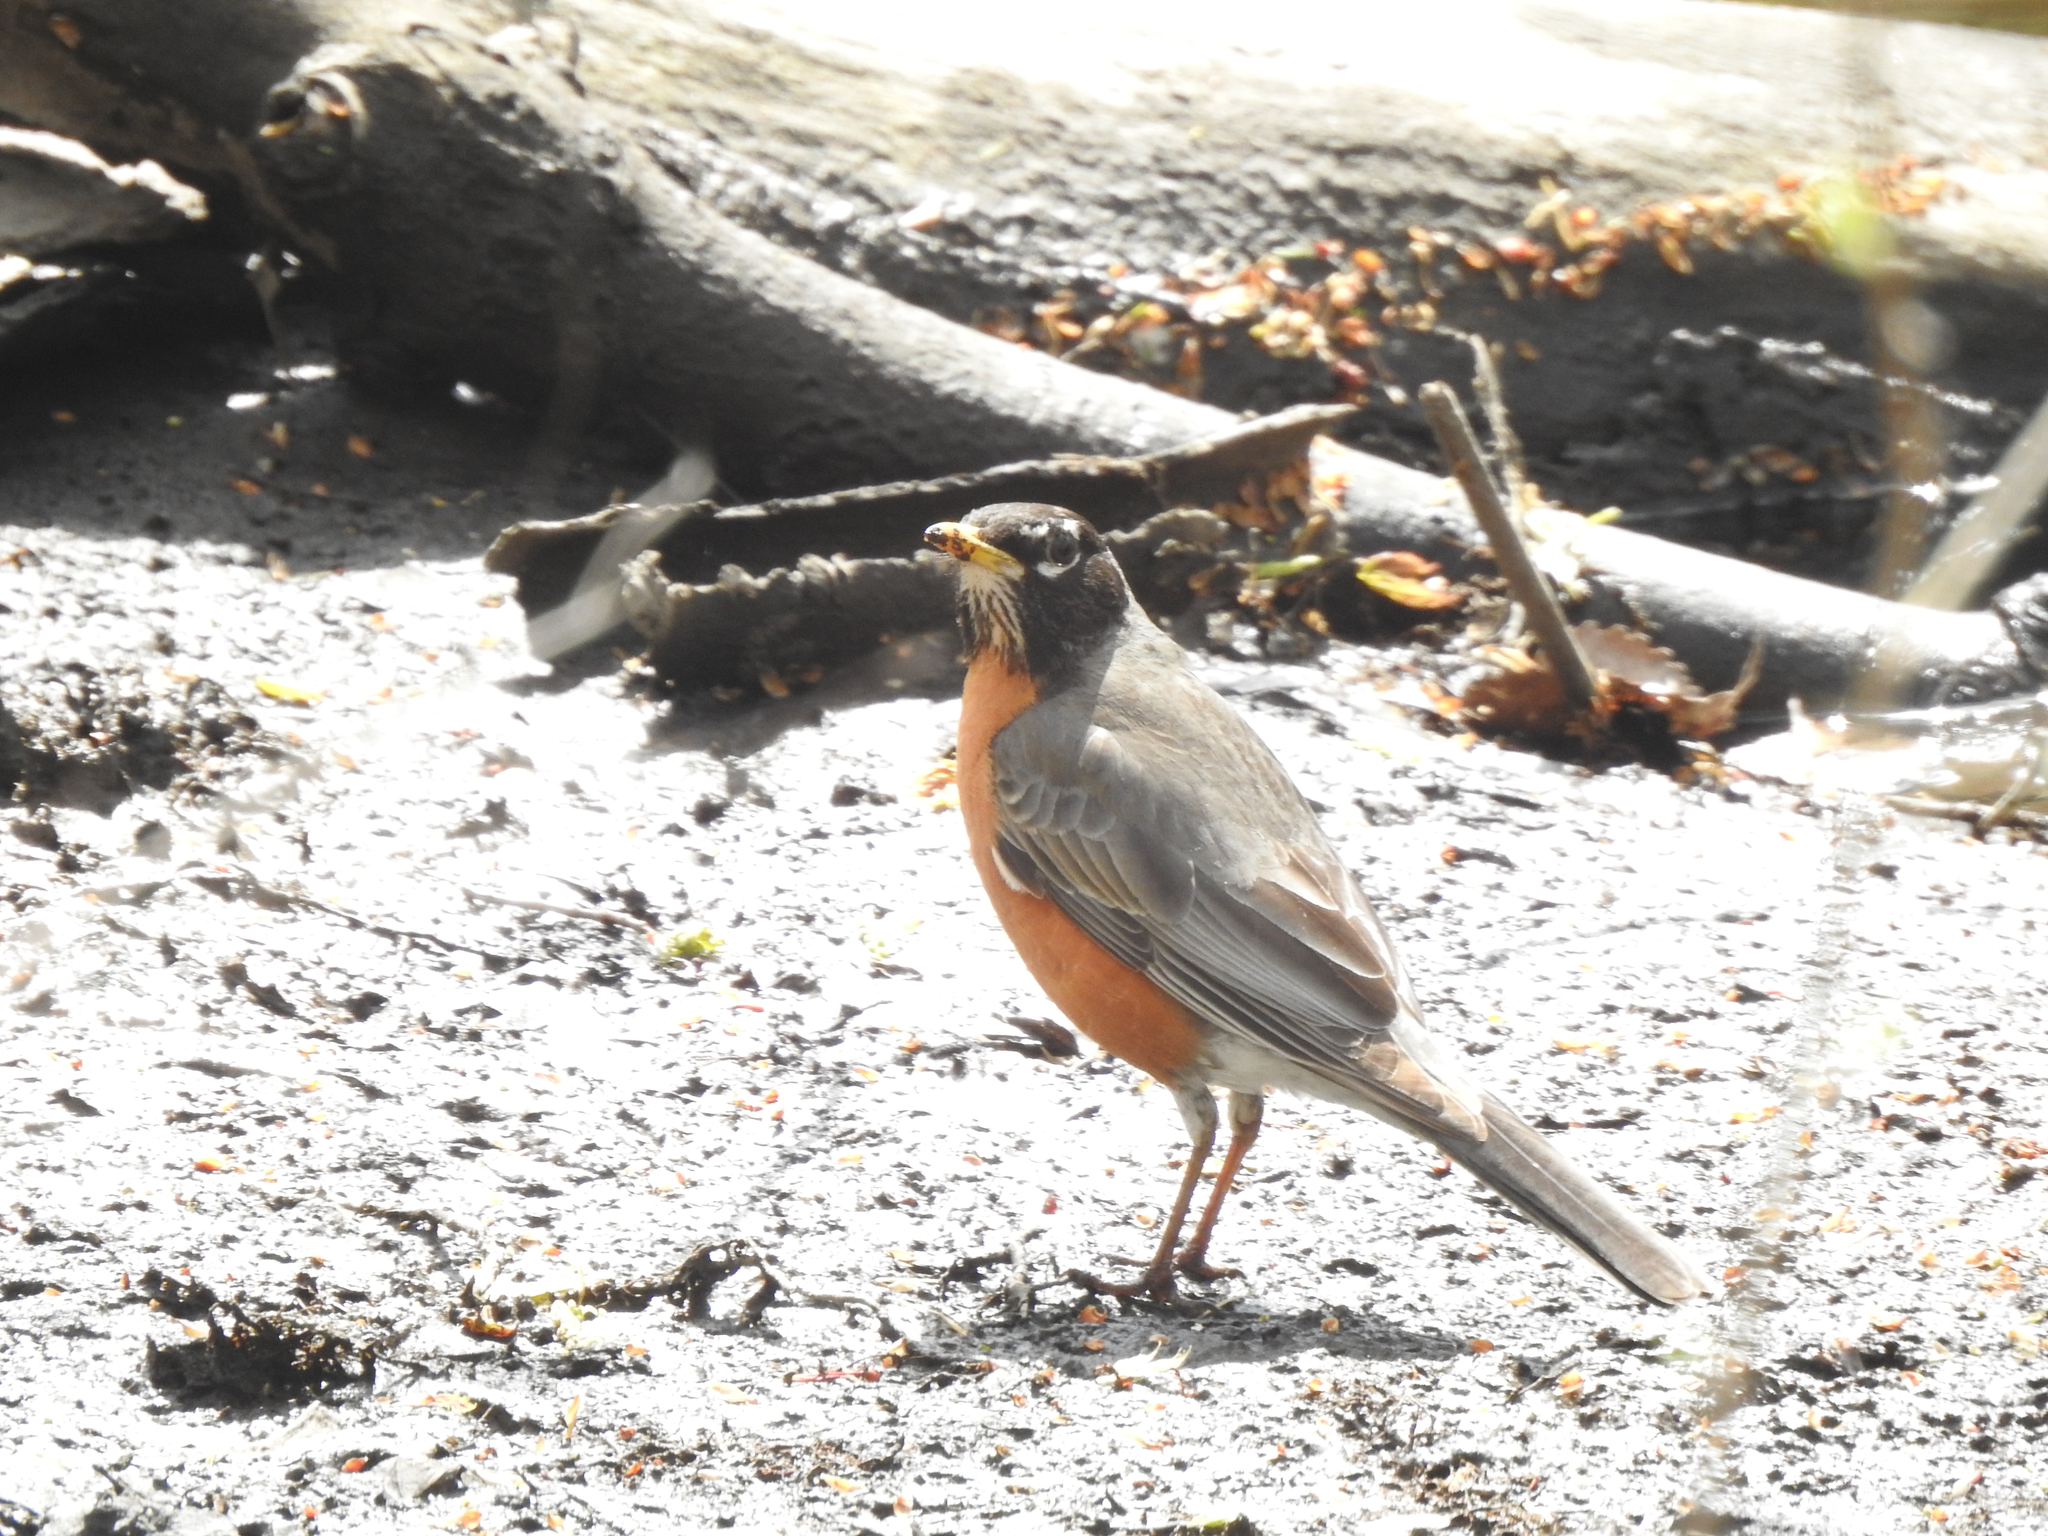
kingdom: Animalia
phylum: Chordata
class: Aves
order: Passeriformes
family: Turdidae
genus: Turdus
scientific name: Turdus migratorius
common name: American robin
